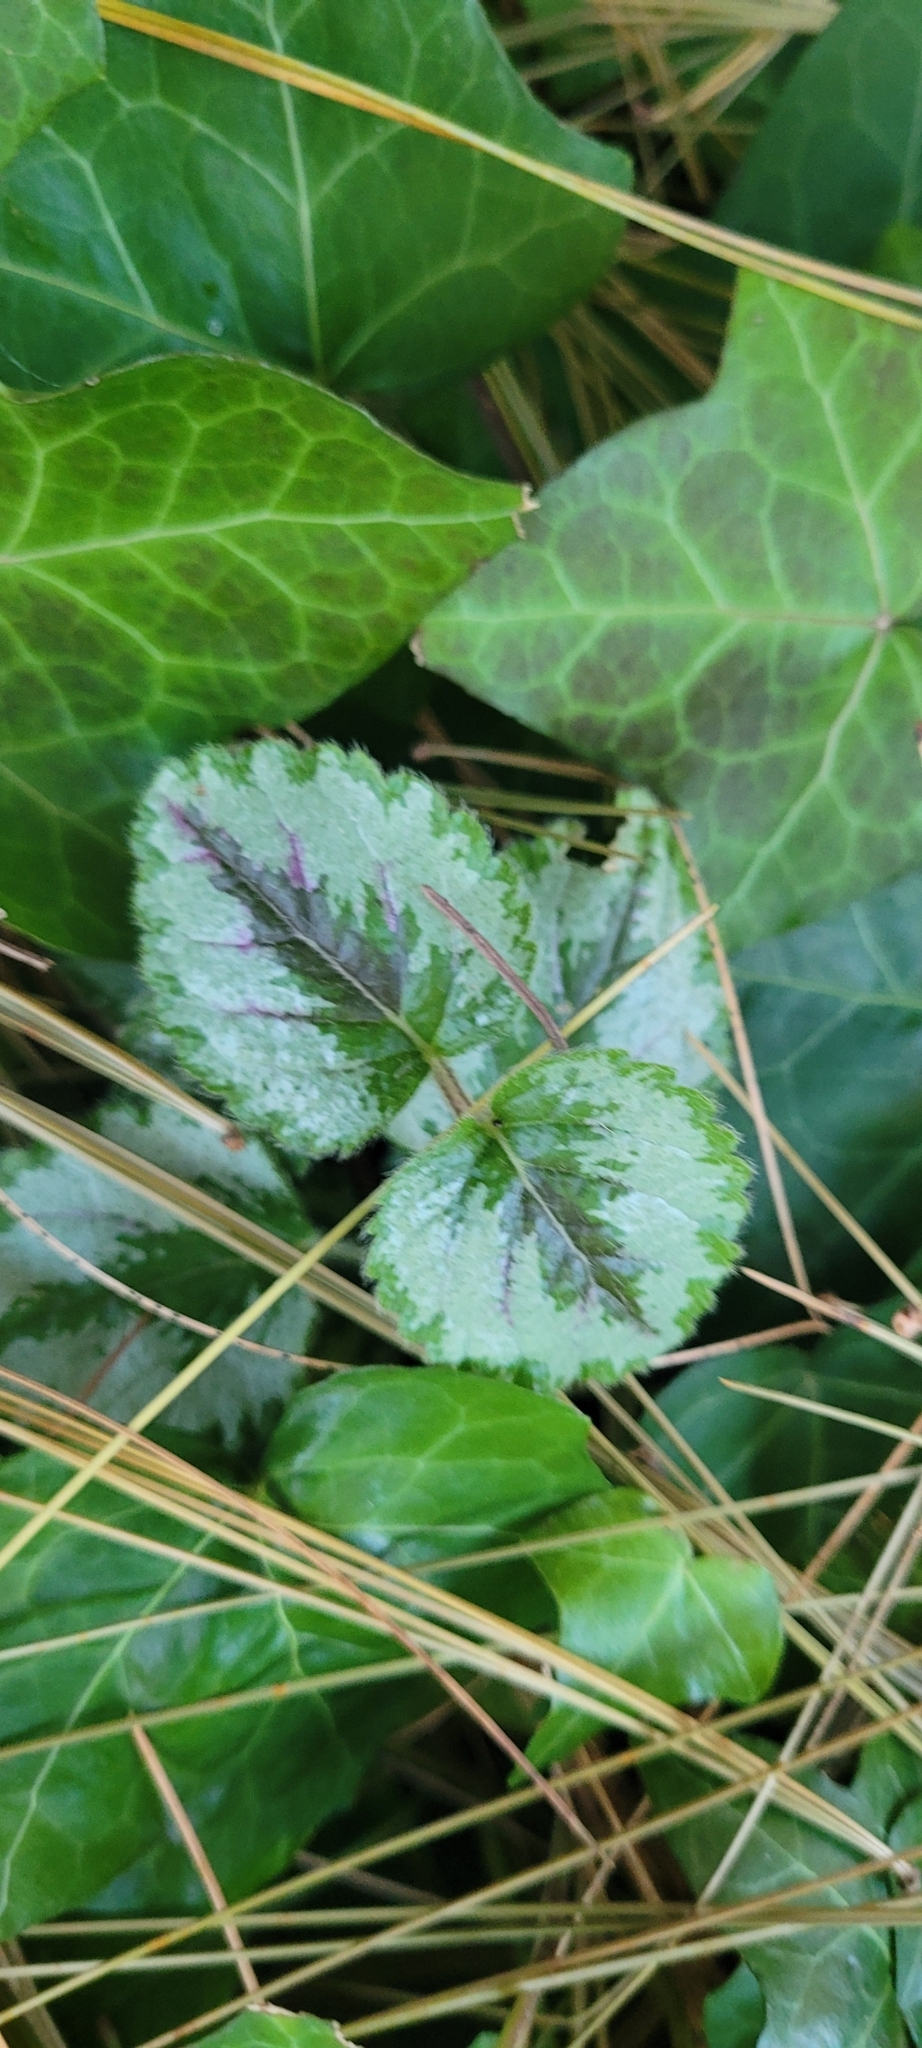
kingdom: Plantae
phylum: Tracheophyta
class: Magnoliopsida
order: Lamiales
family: Lamiaceae
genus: Lamium
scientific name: Lamium galeobdolon
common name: Yellow archangel
